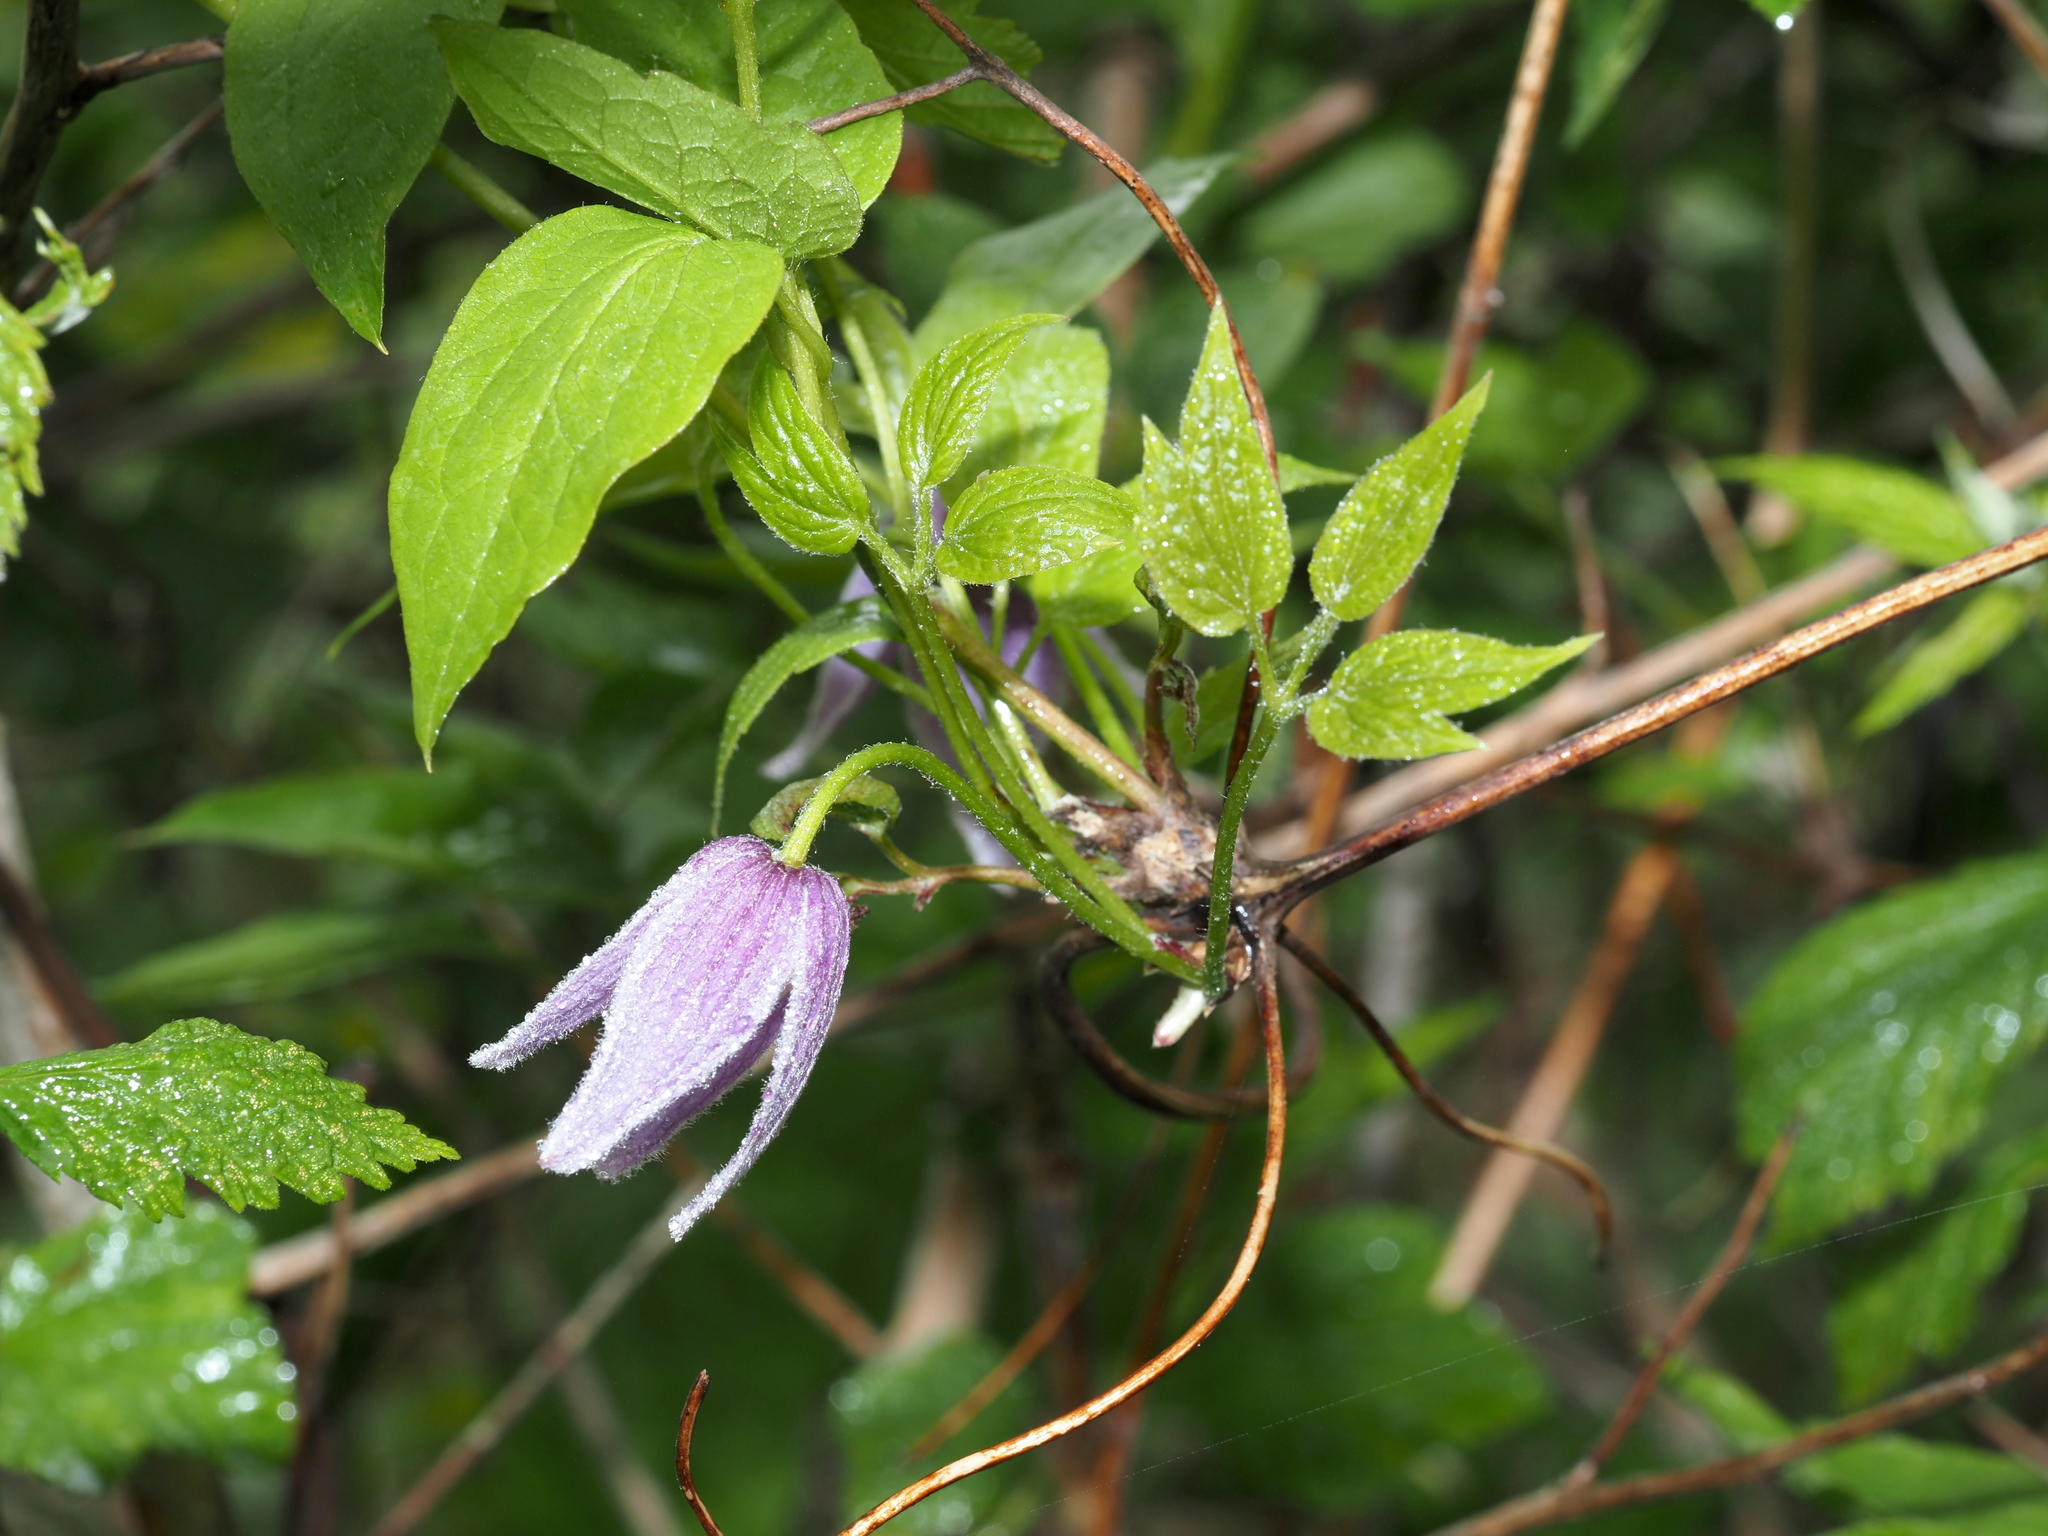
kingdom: Plantae
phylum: Tracheophyta
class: Magnoliopsida
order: Ranunculales
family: Ranunculaceae
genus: Clematis
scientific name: Clematis occidentalis
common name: Purple clematis
